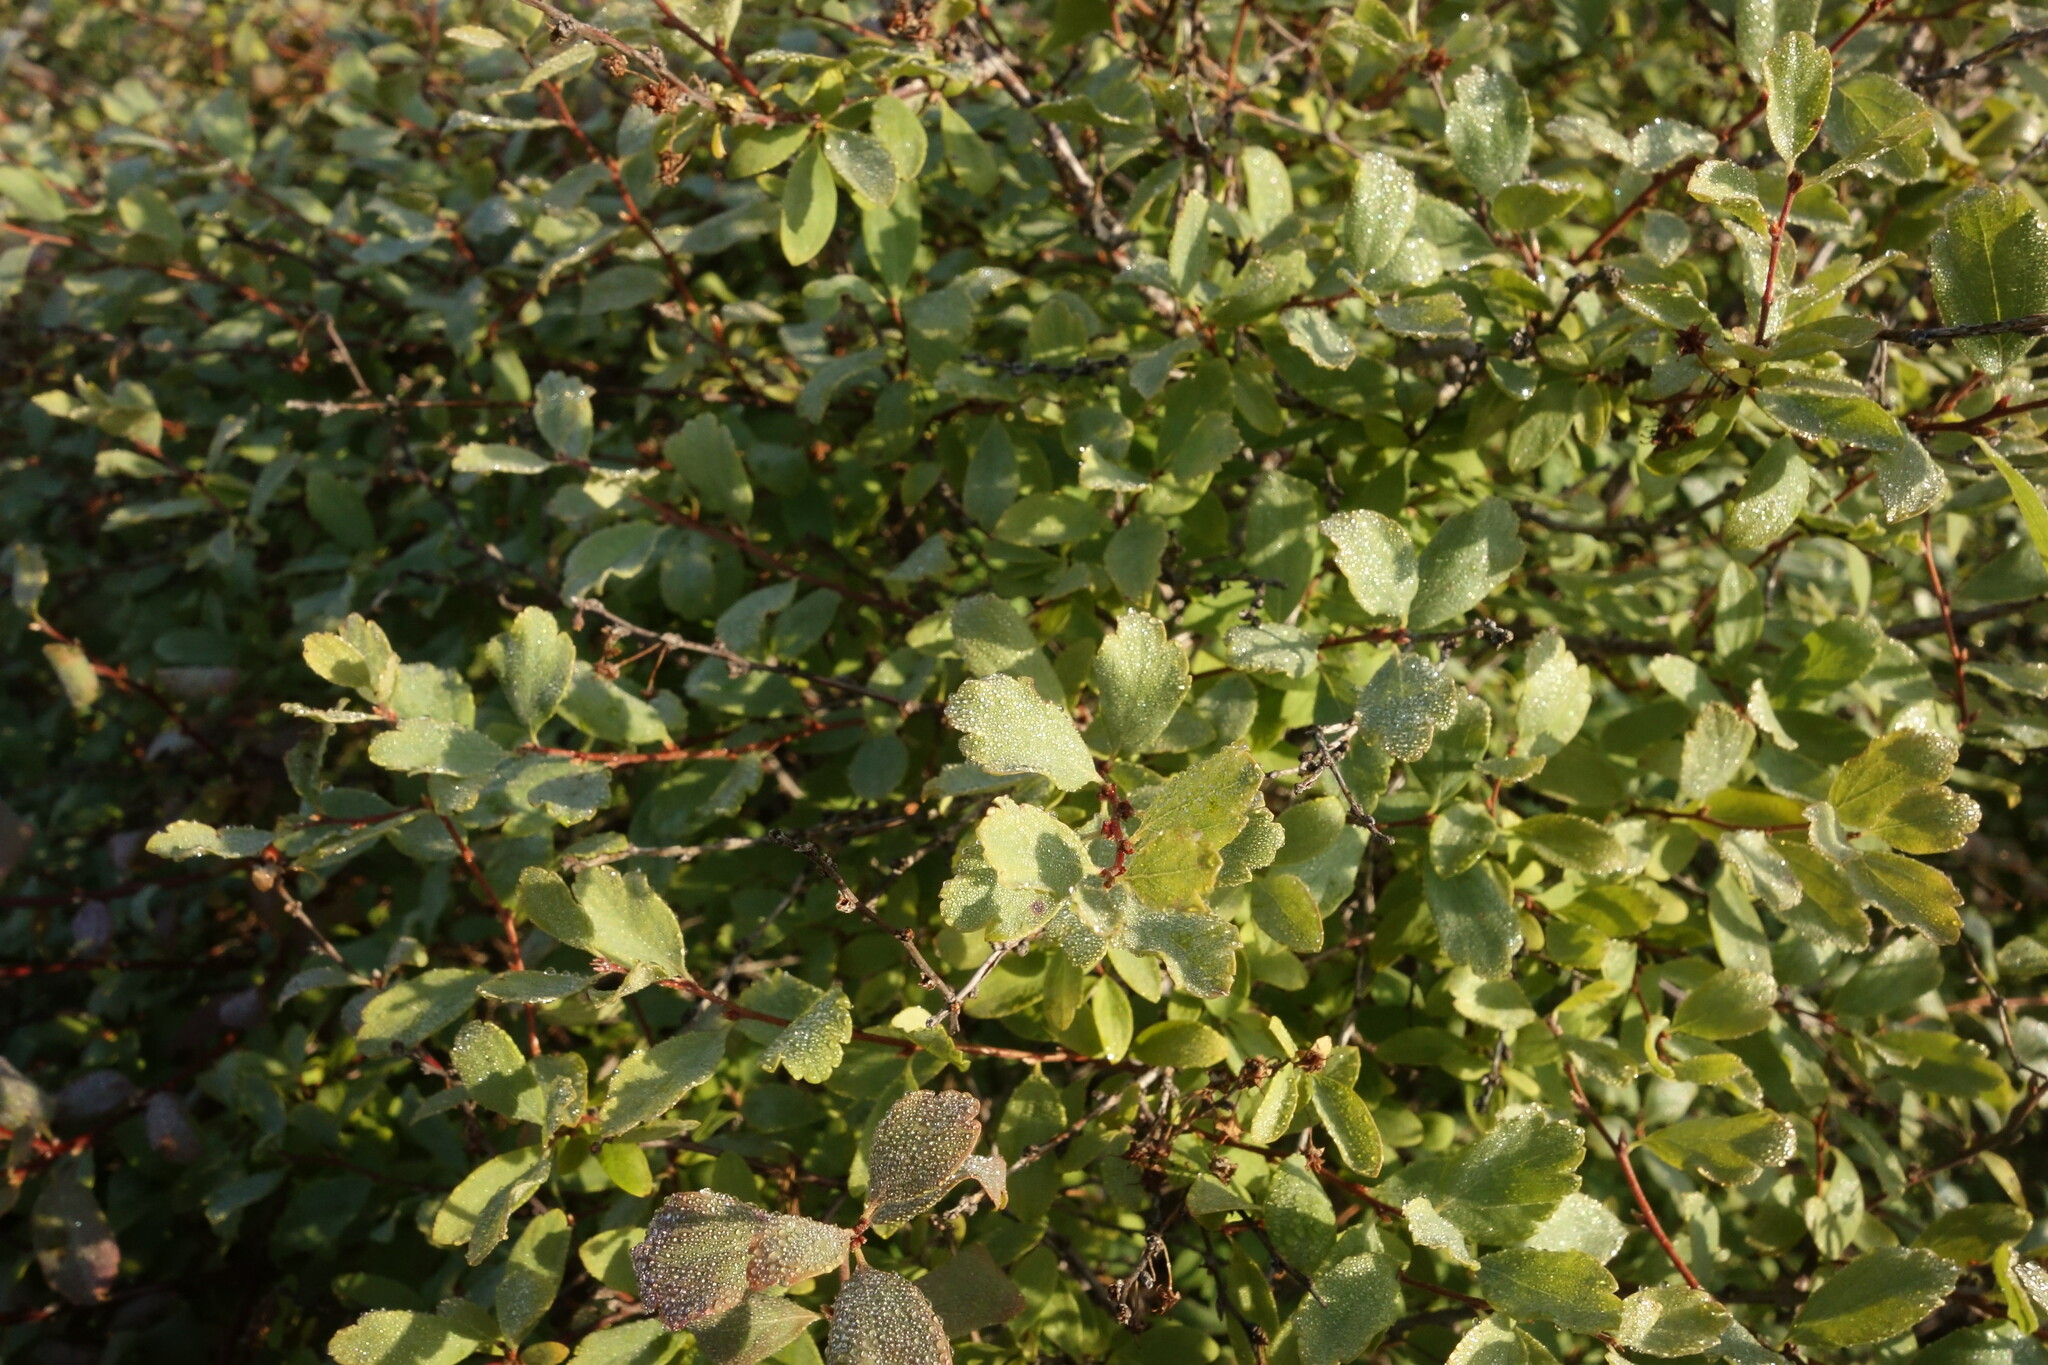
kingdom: Plantae
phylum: Tracheophyta
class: Magnoliopsida
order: Rosales
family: Rosaceae
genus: Spiraea
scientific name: Spiraea aquilegifolia
